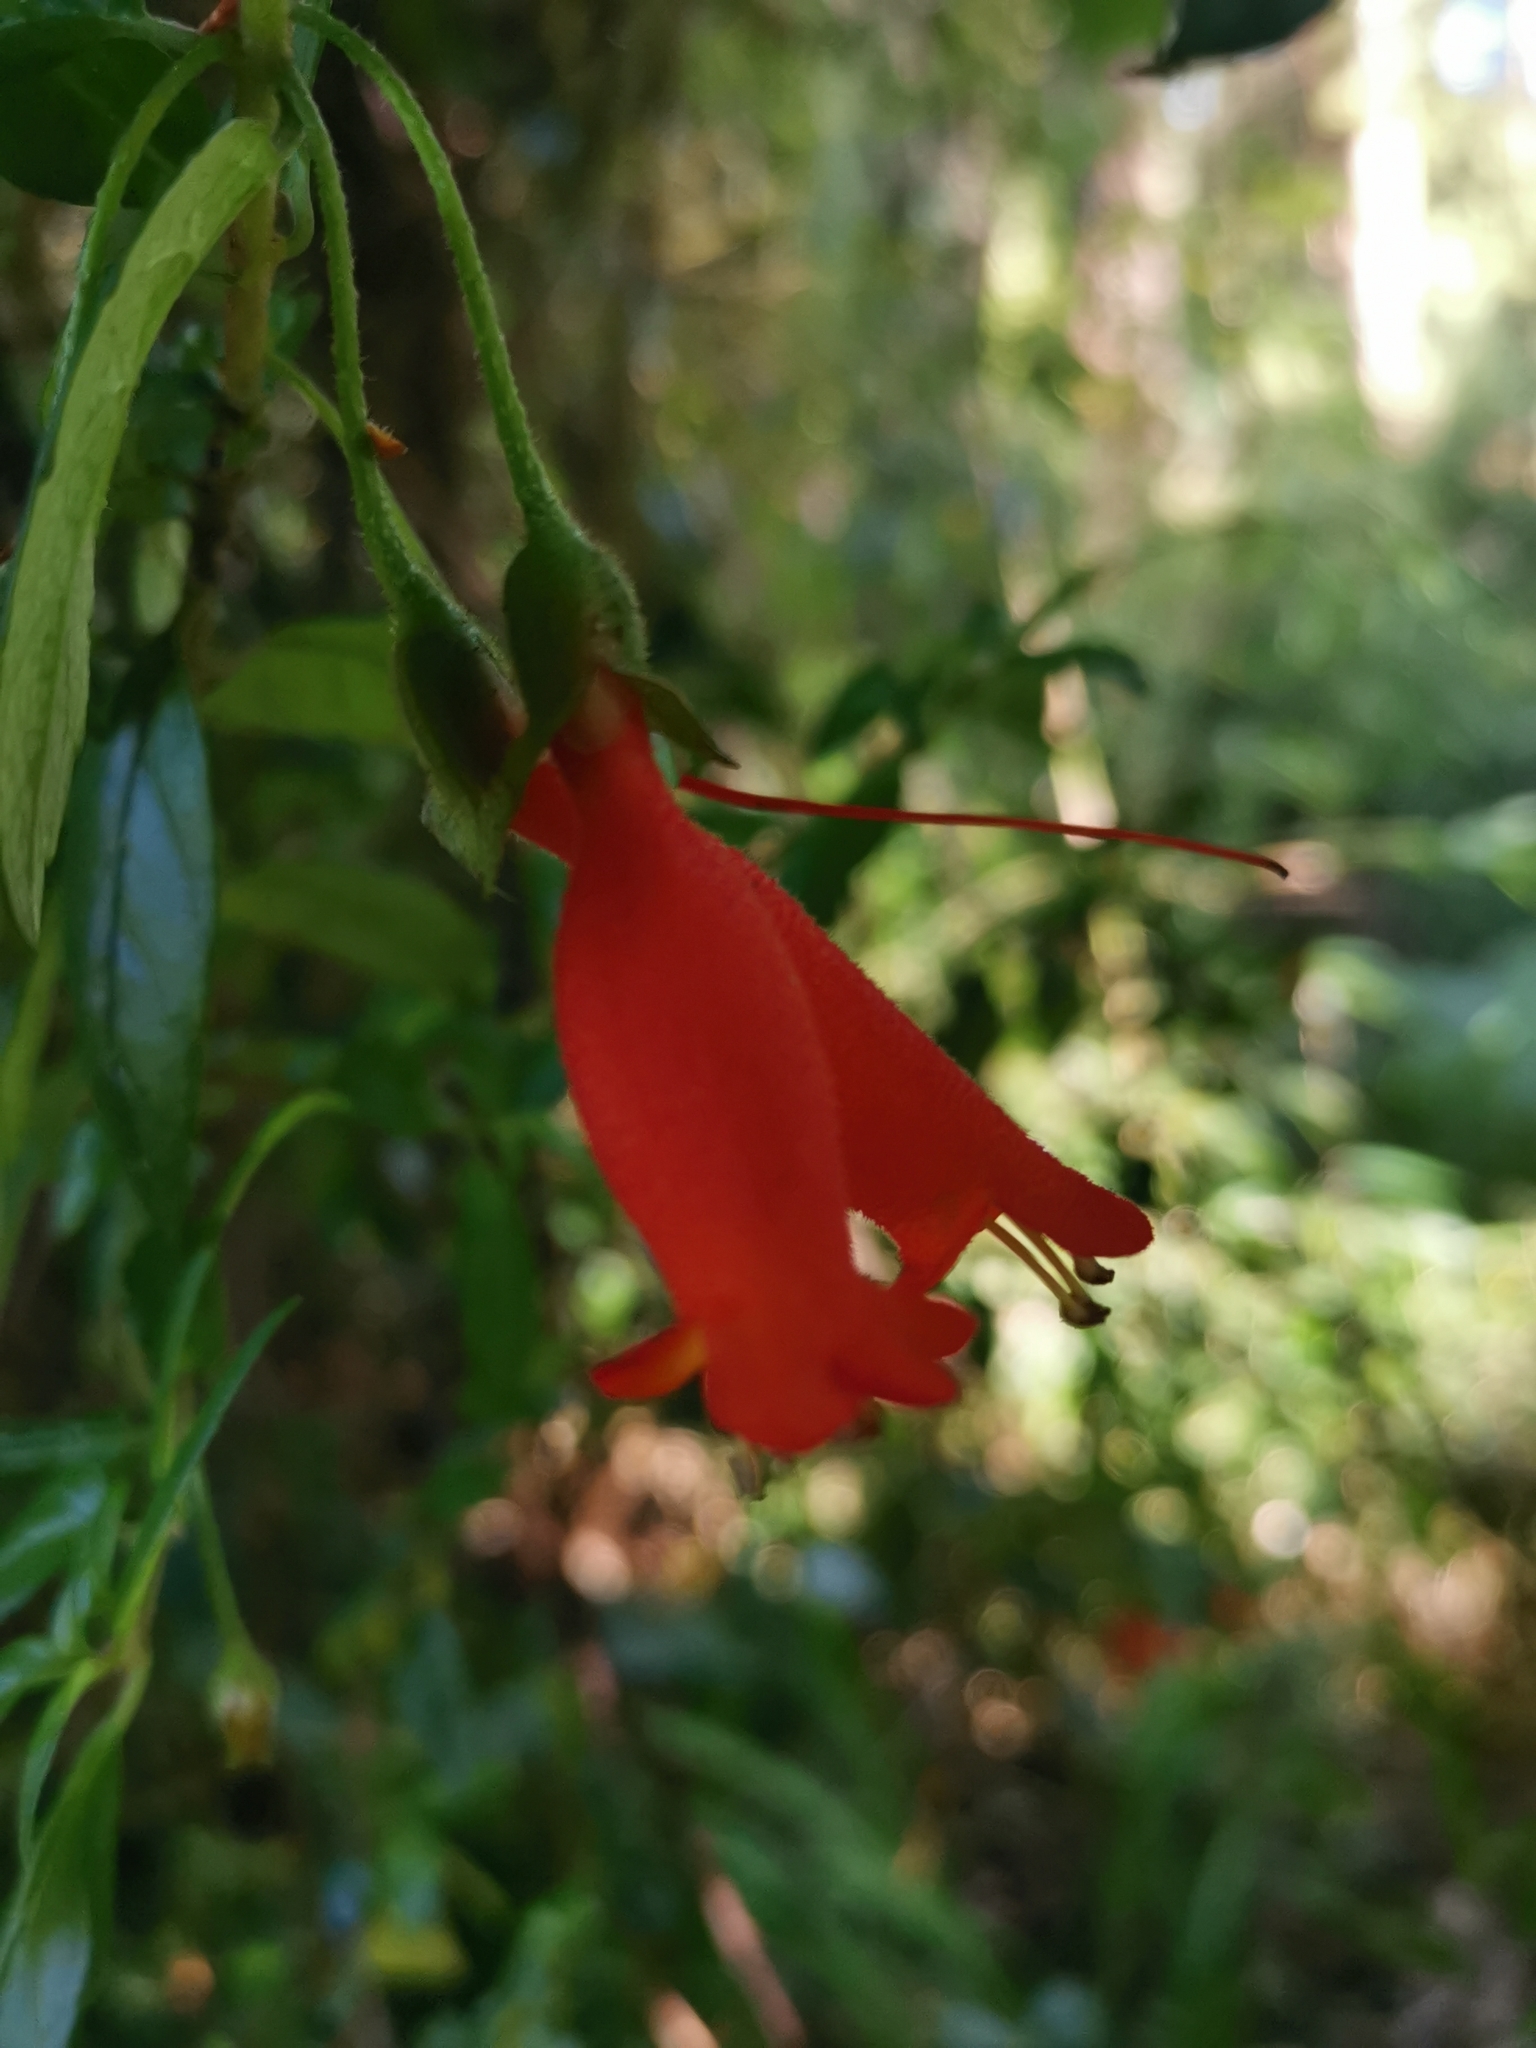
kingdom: Plantae
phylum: Tracheophyta
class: Magnoliopsida
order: Lamiales
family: Gesneriaceae
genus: Mitraria
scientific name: Mitraria coccinea
